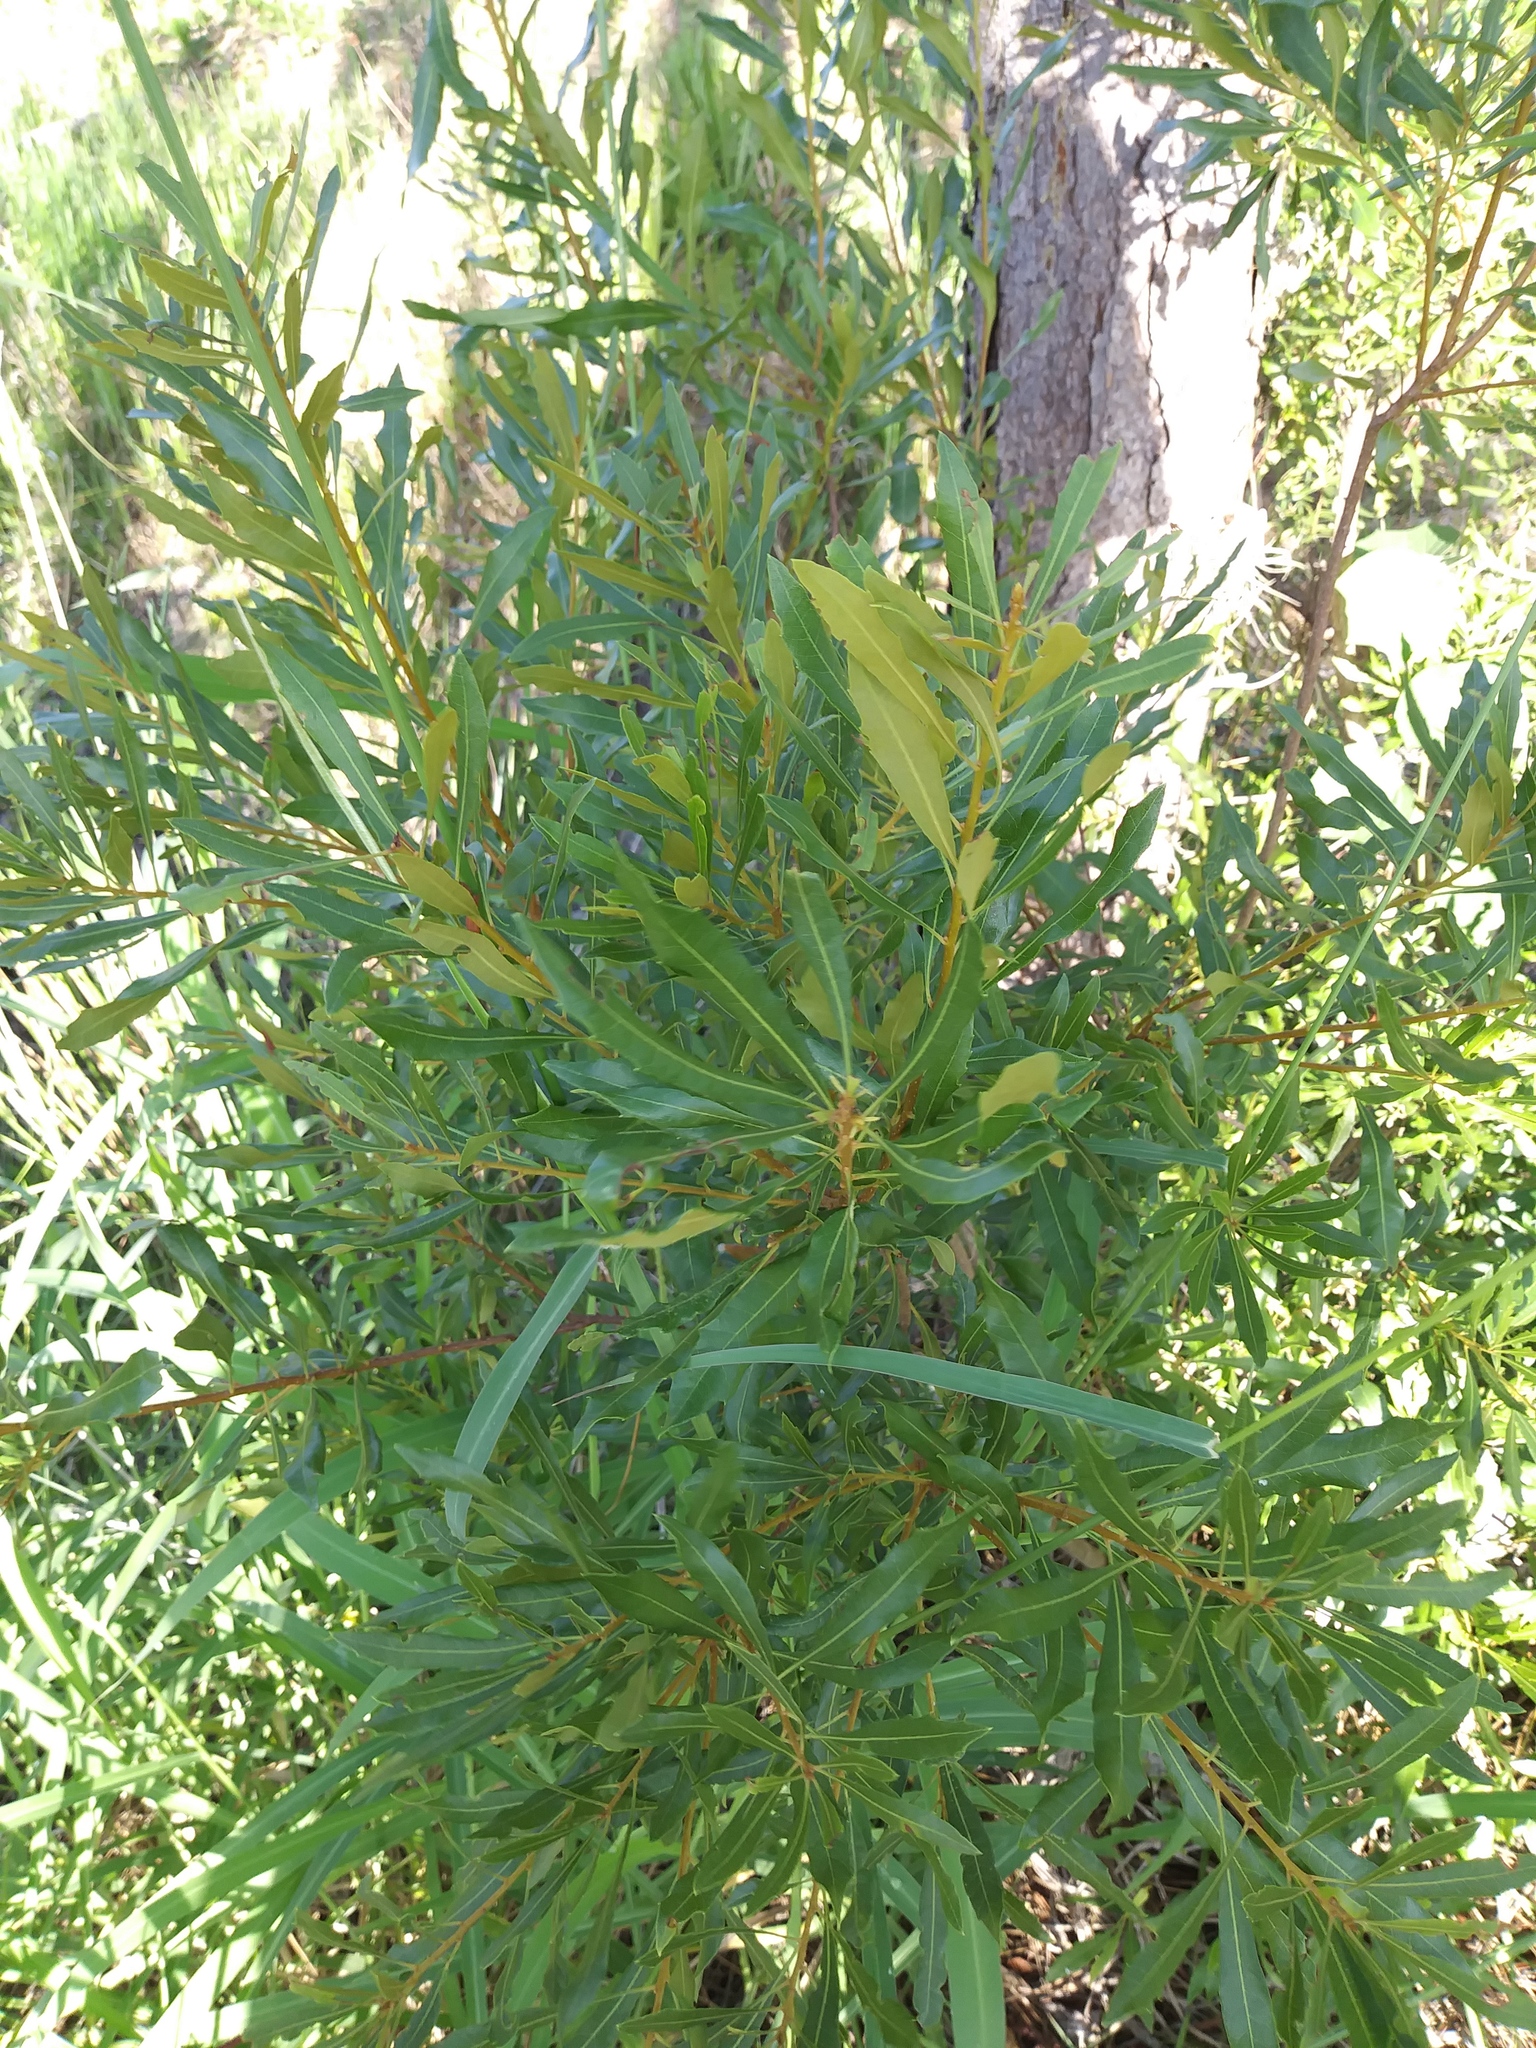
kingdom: Plantae
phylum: Tracheophyta
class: Magnoliopsida
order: Fagales
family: Myricaceae
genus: Morella
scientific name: Morella cerifera
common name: Wax myrtle
